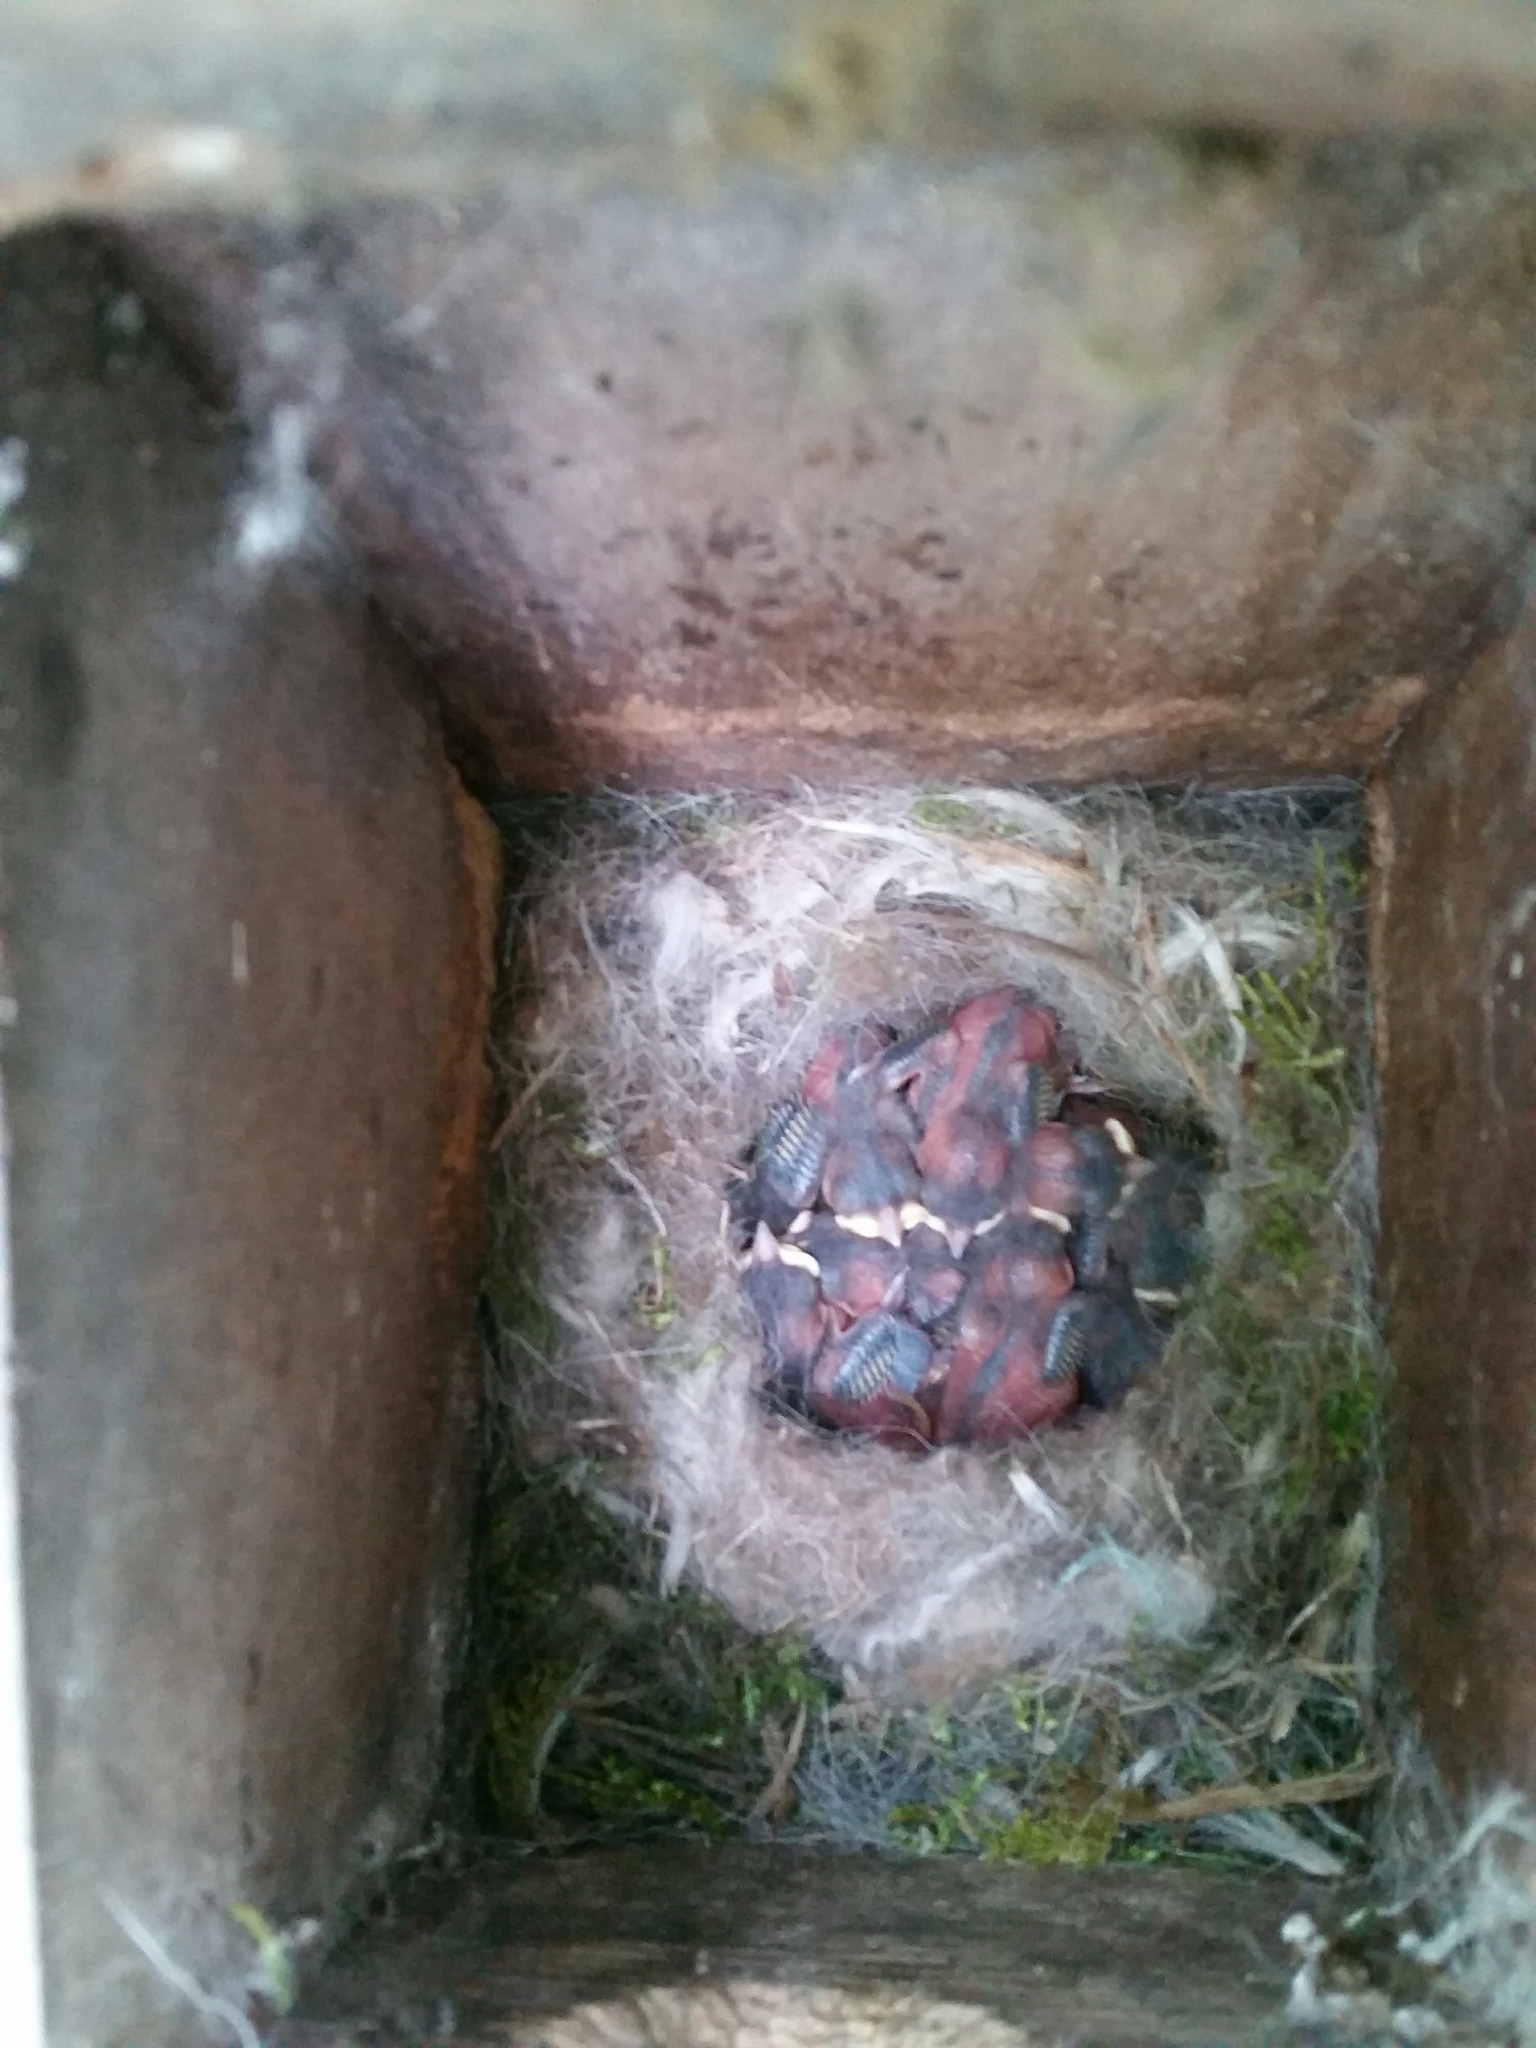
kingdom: Animalia
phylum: Chordata
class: Aves
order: Passeriformes
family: Paridae
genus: Parus
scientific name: Parus major
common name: Great tit
